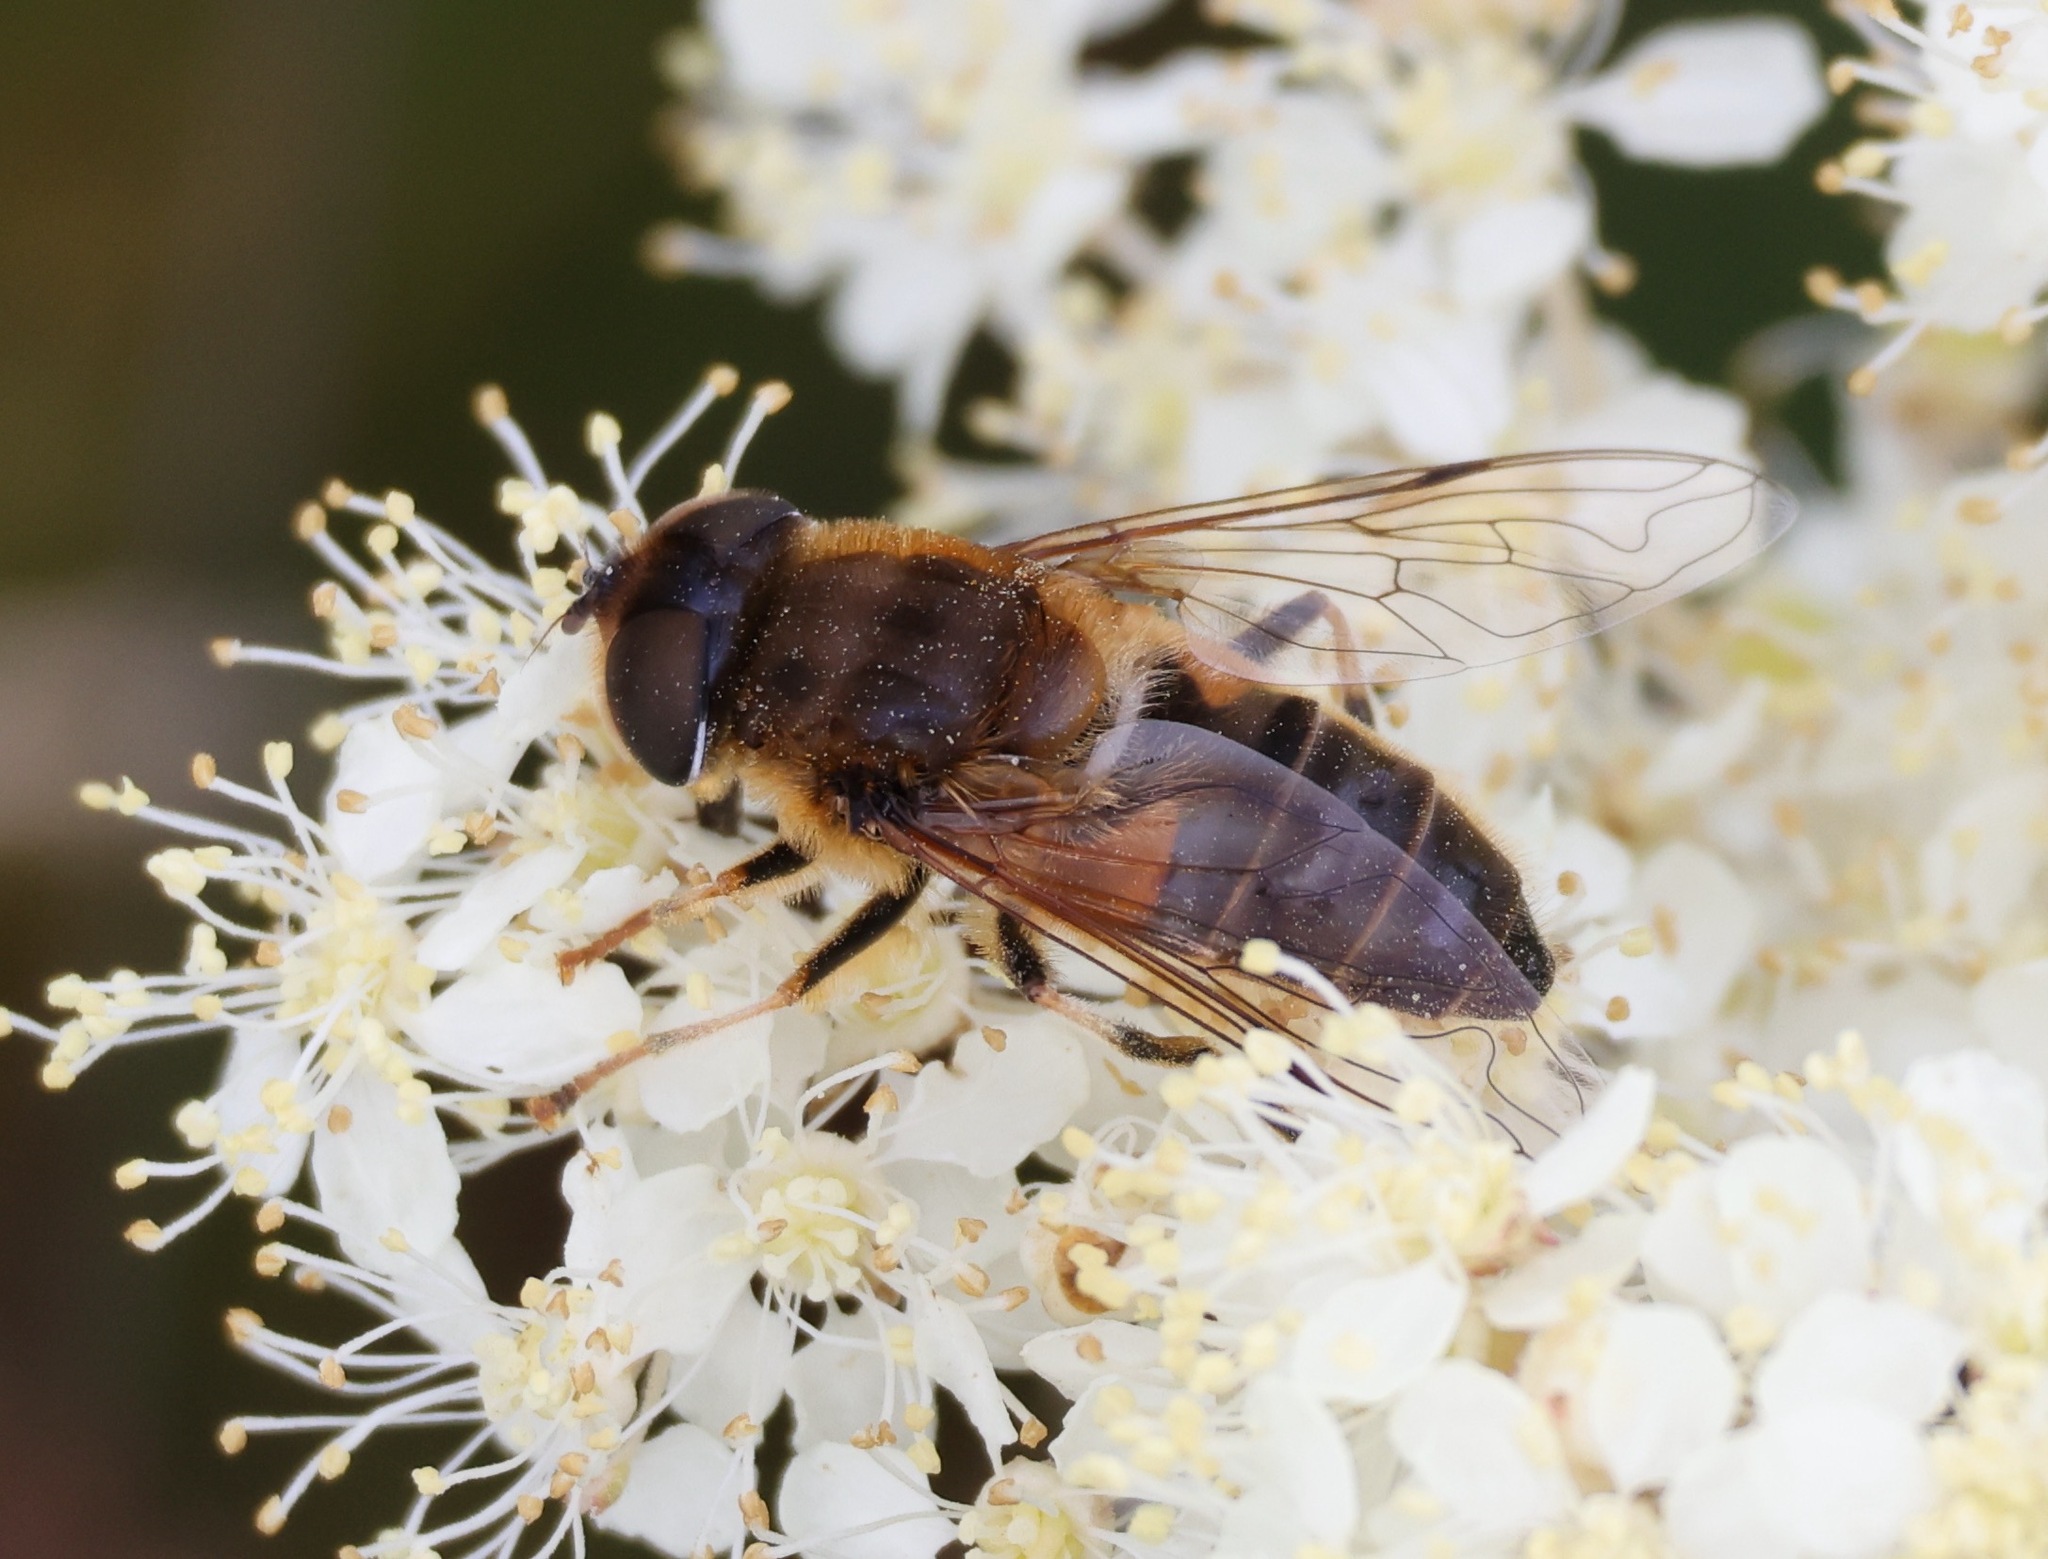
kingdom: Animalia
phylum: Arthropoda
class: Insecta
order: Diptera
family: Syrphidae
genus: Eristalis
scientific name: Eristalis pertinax
